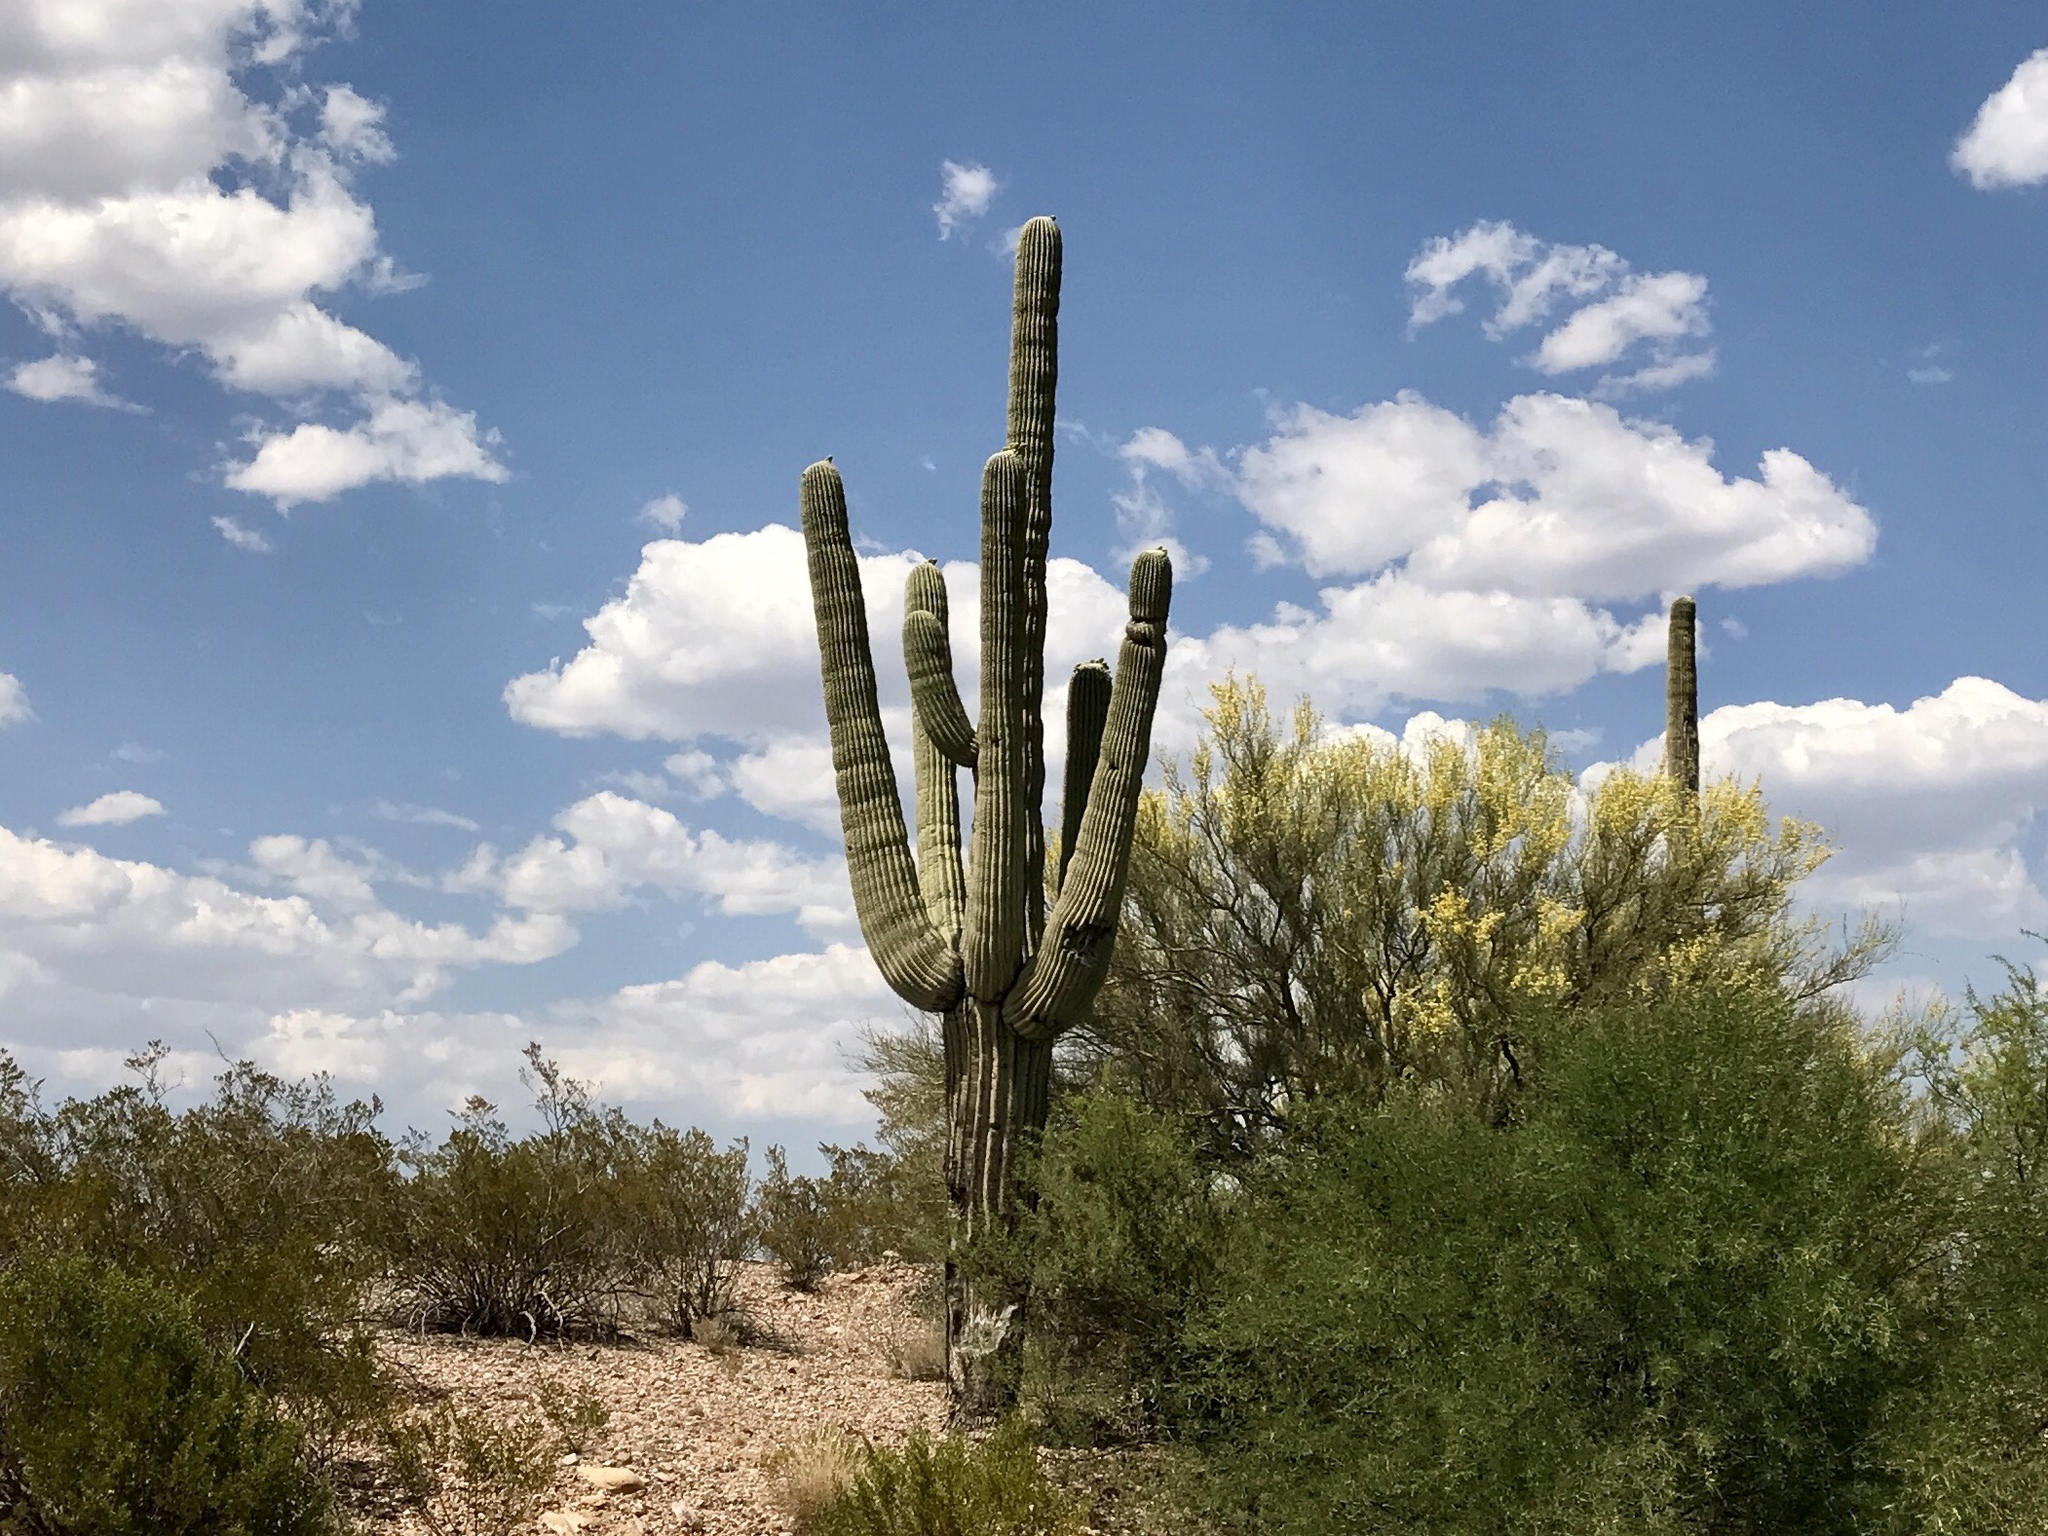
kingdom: Plantae
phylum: Tracheophyta
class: Magnoliopsida
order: Caryophyllales
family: Cactaceae
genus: Carnegiea
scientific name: Carnegiea gigantea
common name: Saguaro
